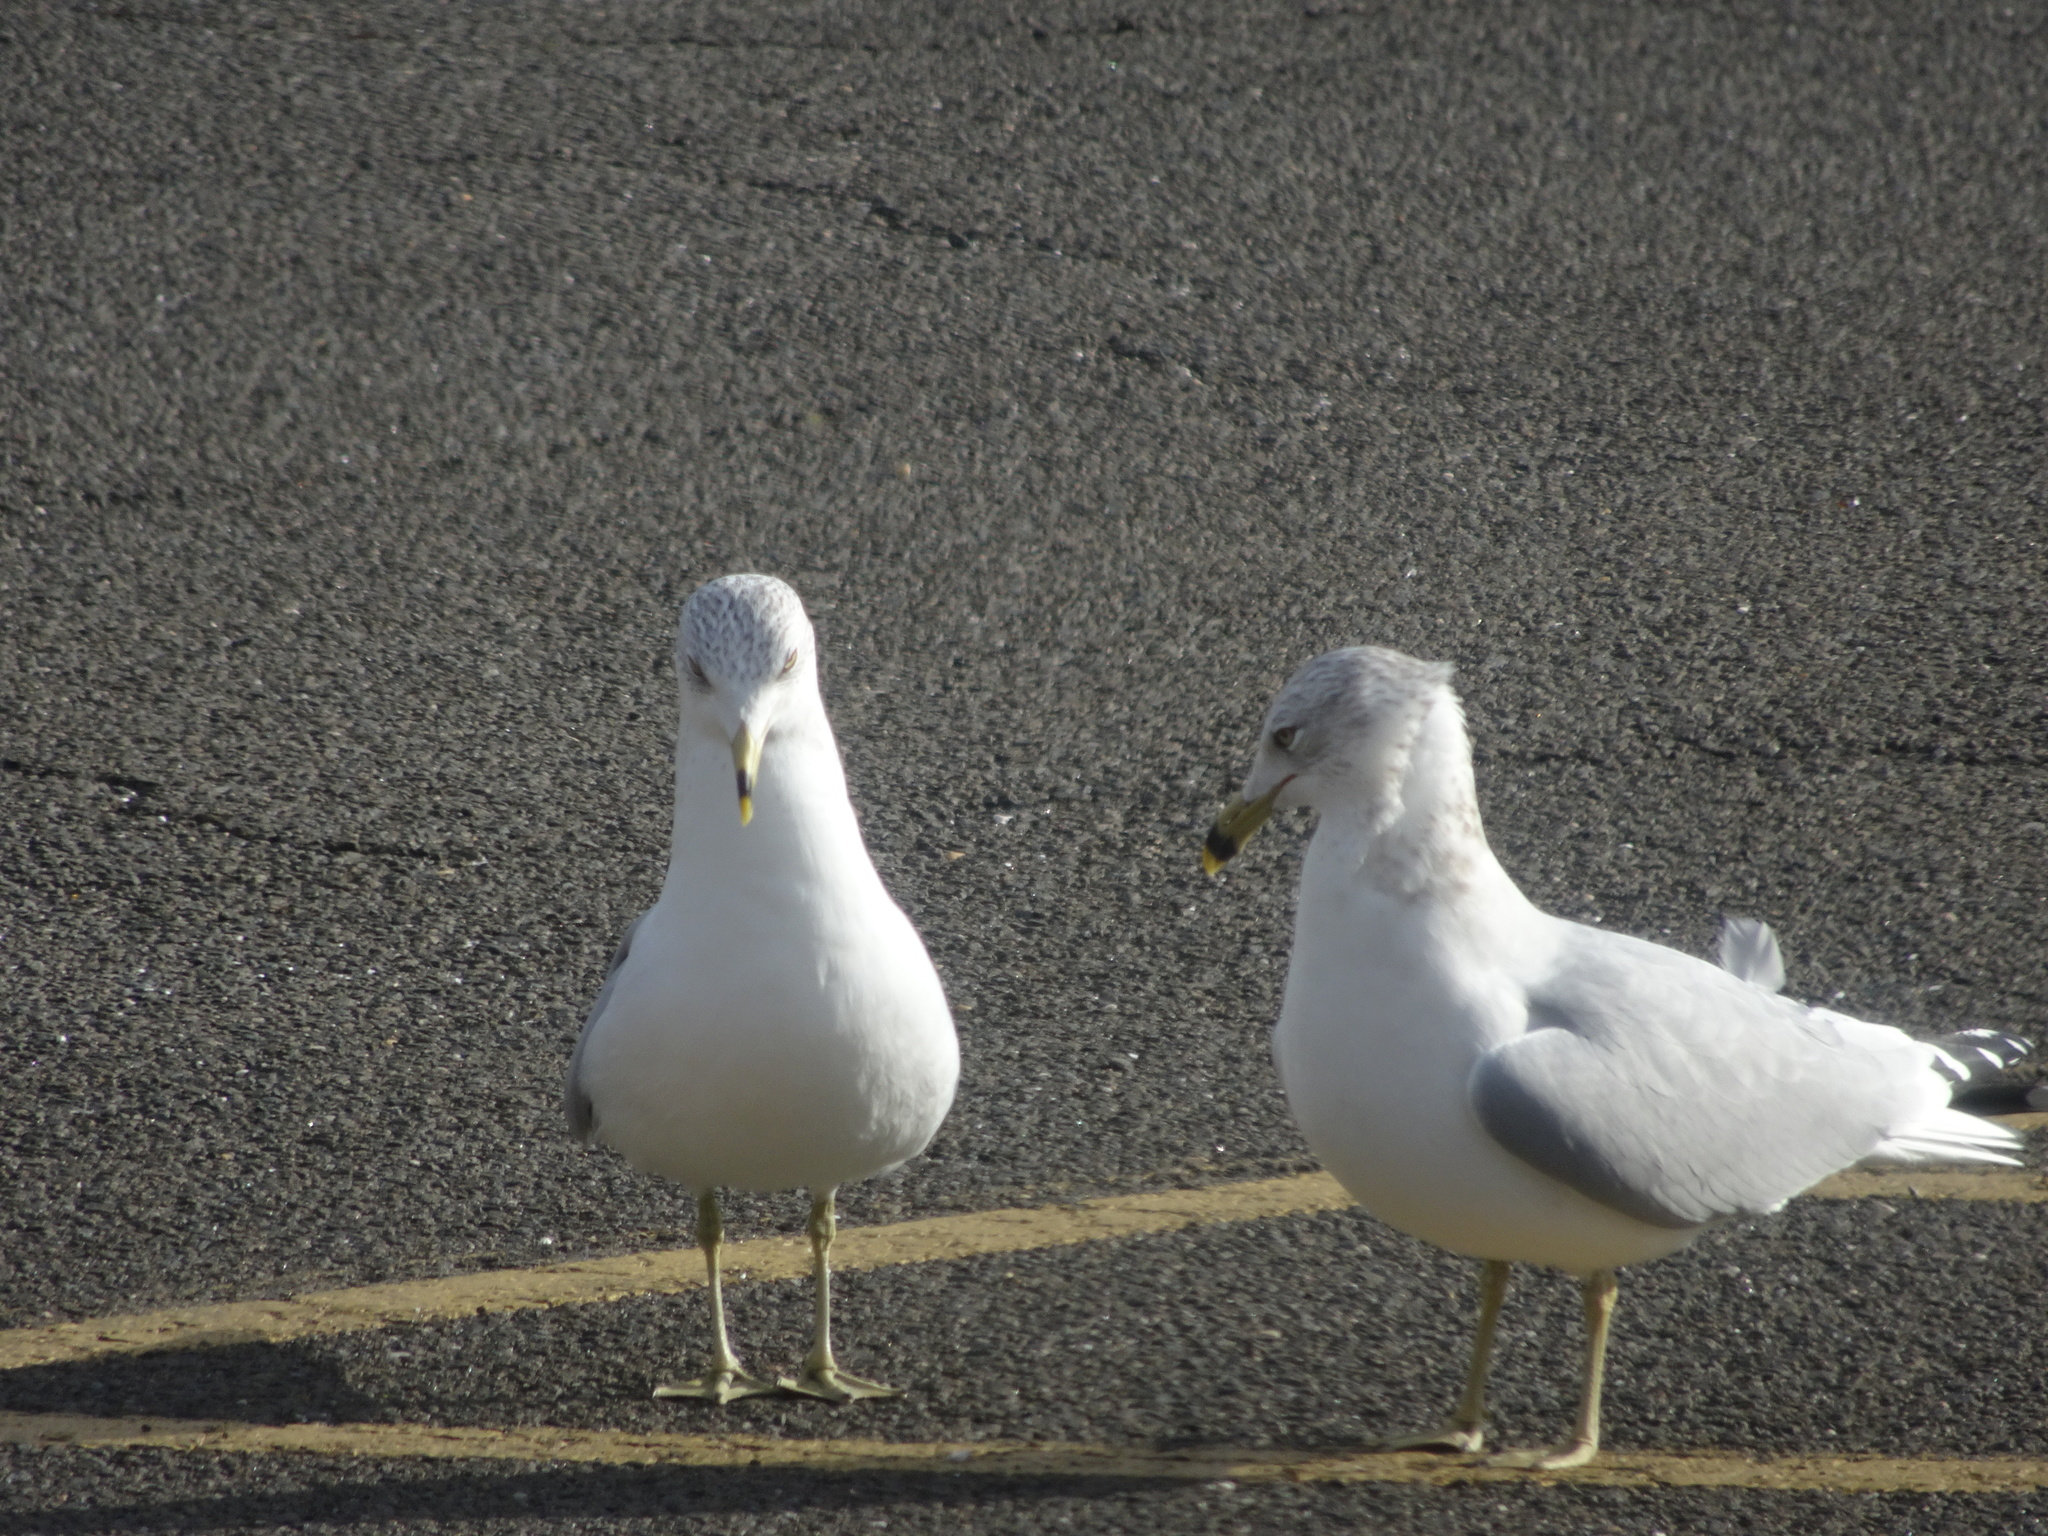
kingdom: Animalia
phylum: Chordata
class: Aves
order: Charadriiformes
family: Laridae
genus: Larus
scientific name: Larus delawarensis
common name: Ring-billed gull
